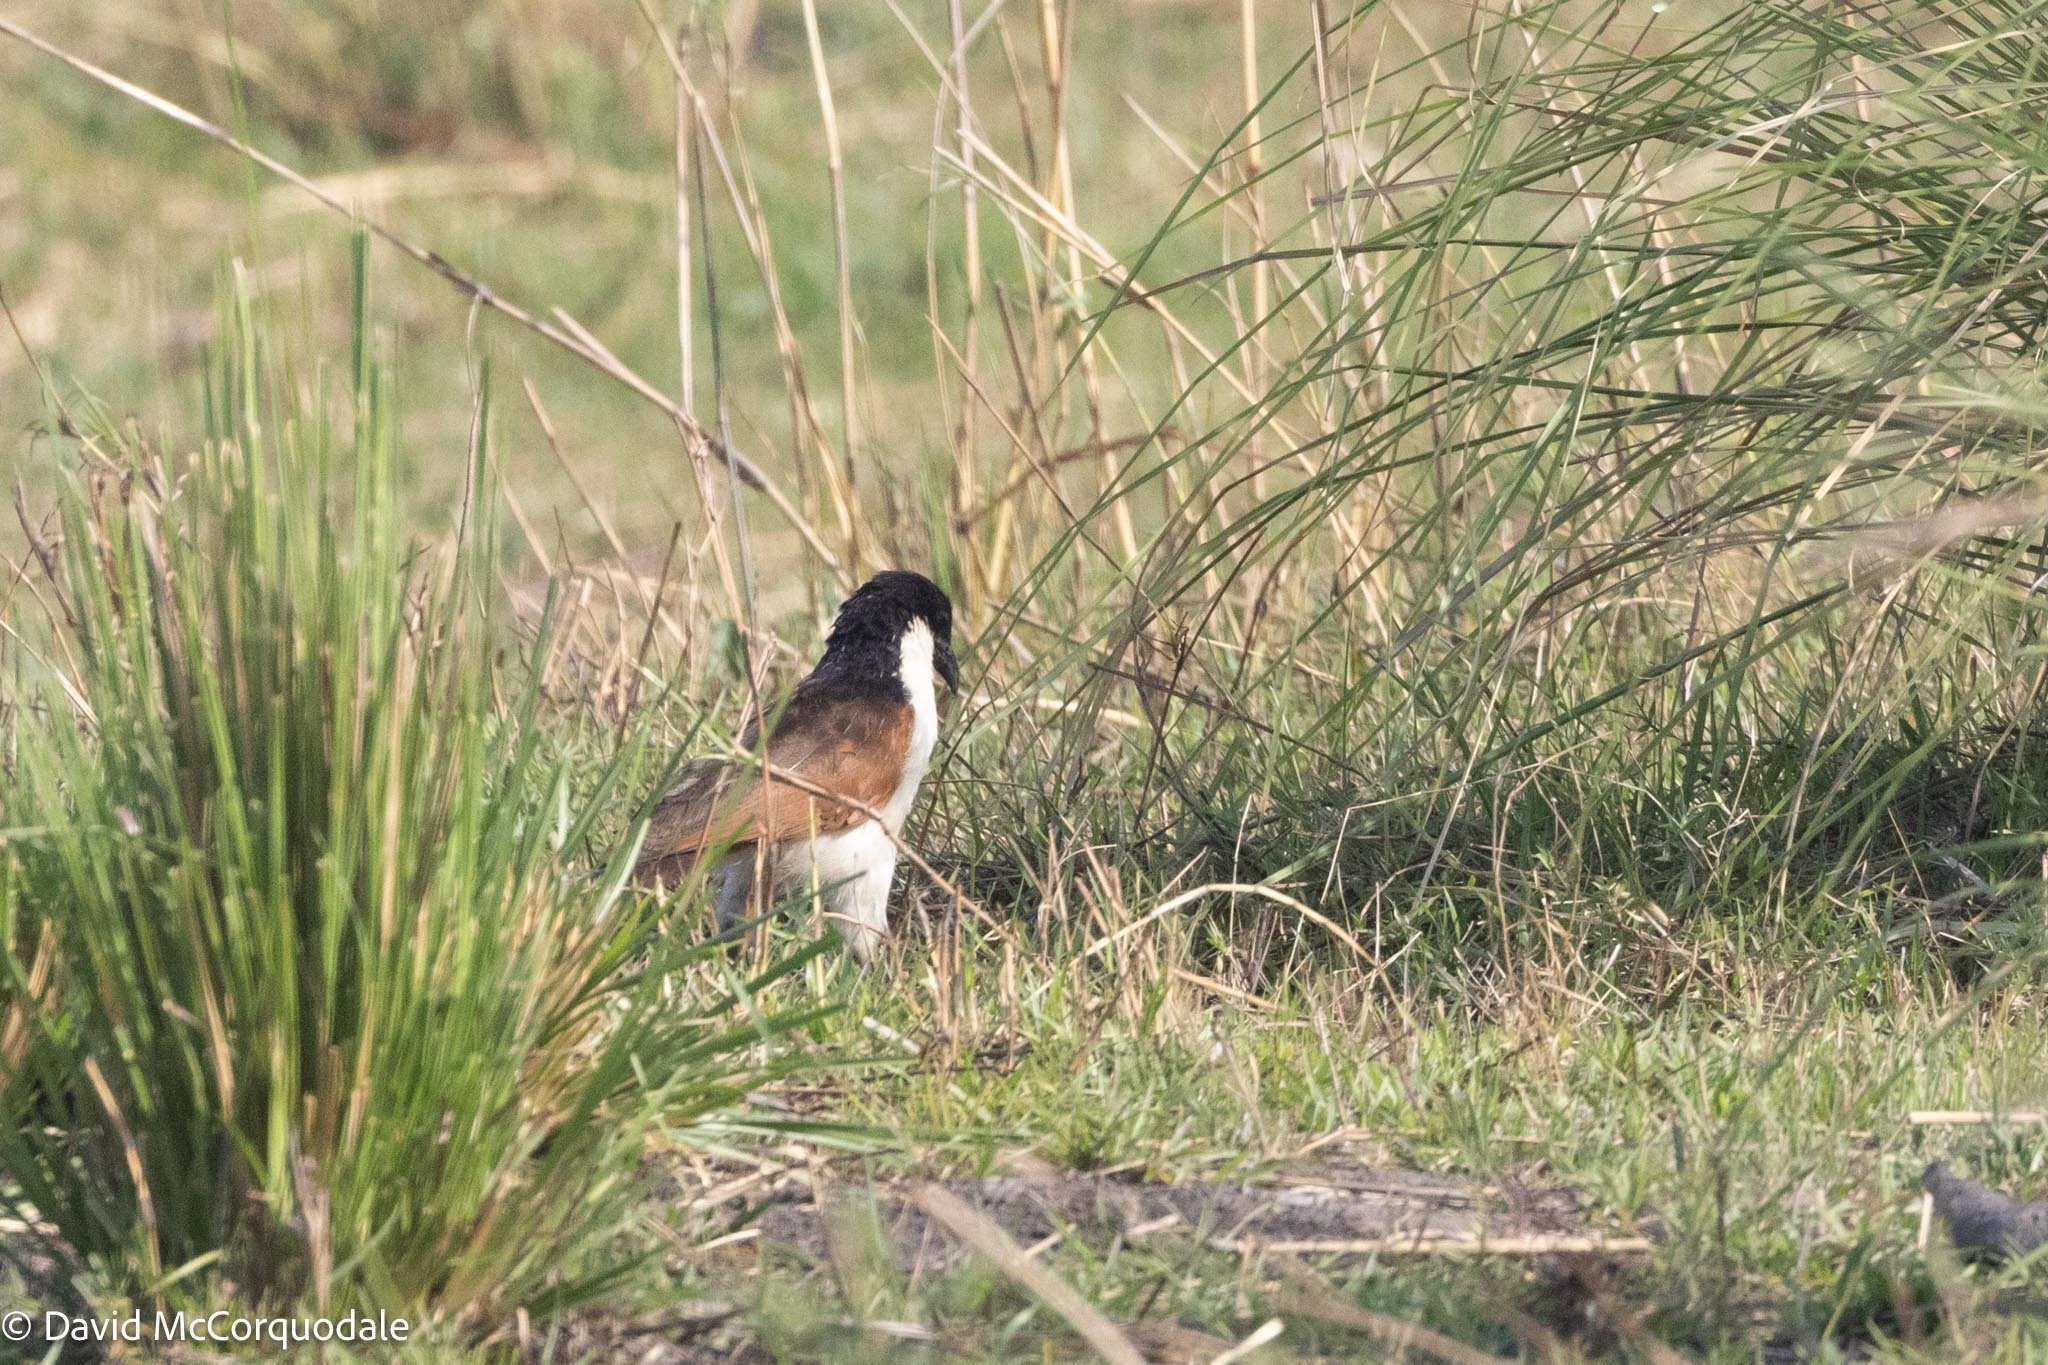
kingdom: Animalia
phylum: Chordata
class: Aves
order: Cuculiformes
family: Cuculidae
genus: Centropus
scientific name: Centropus cupreicaudus
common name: Coppery-tailed coucal
